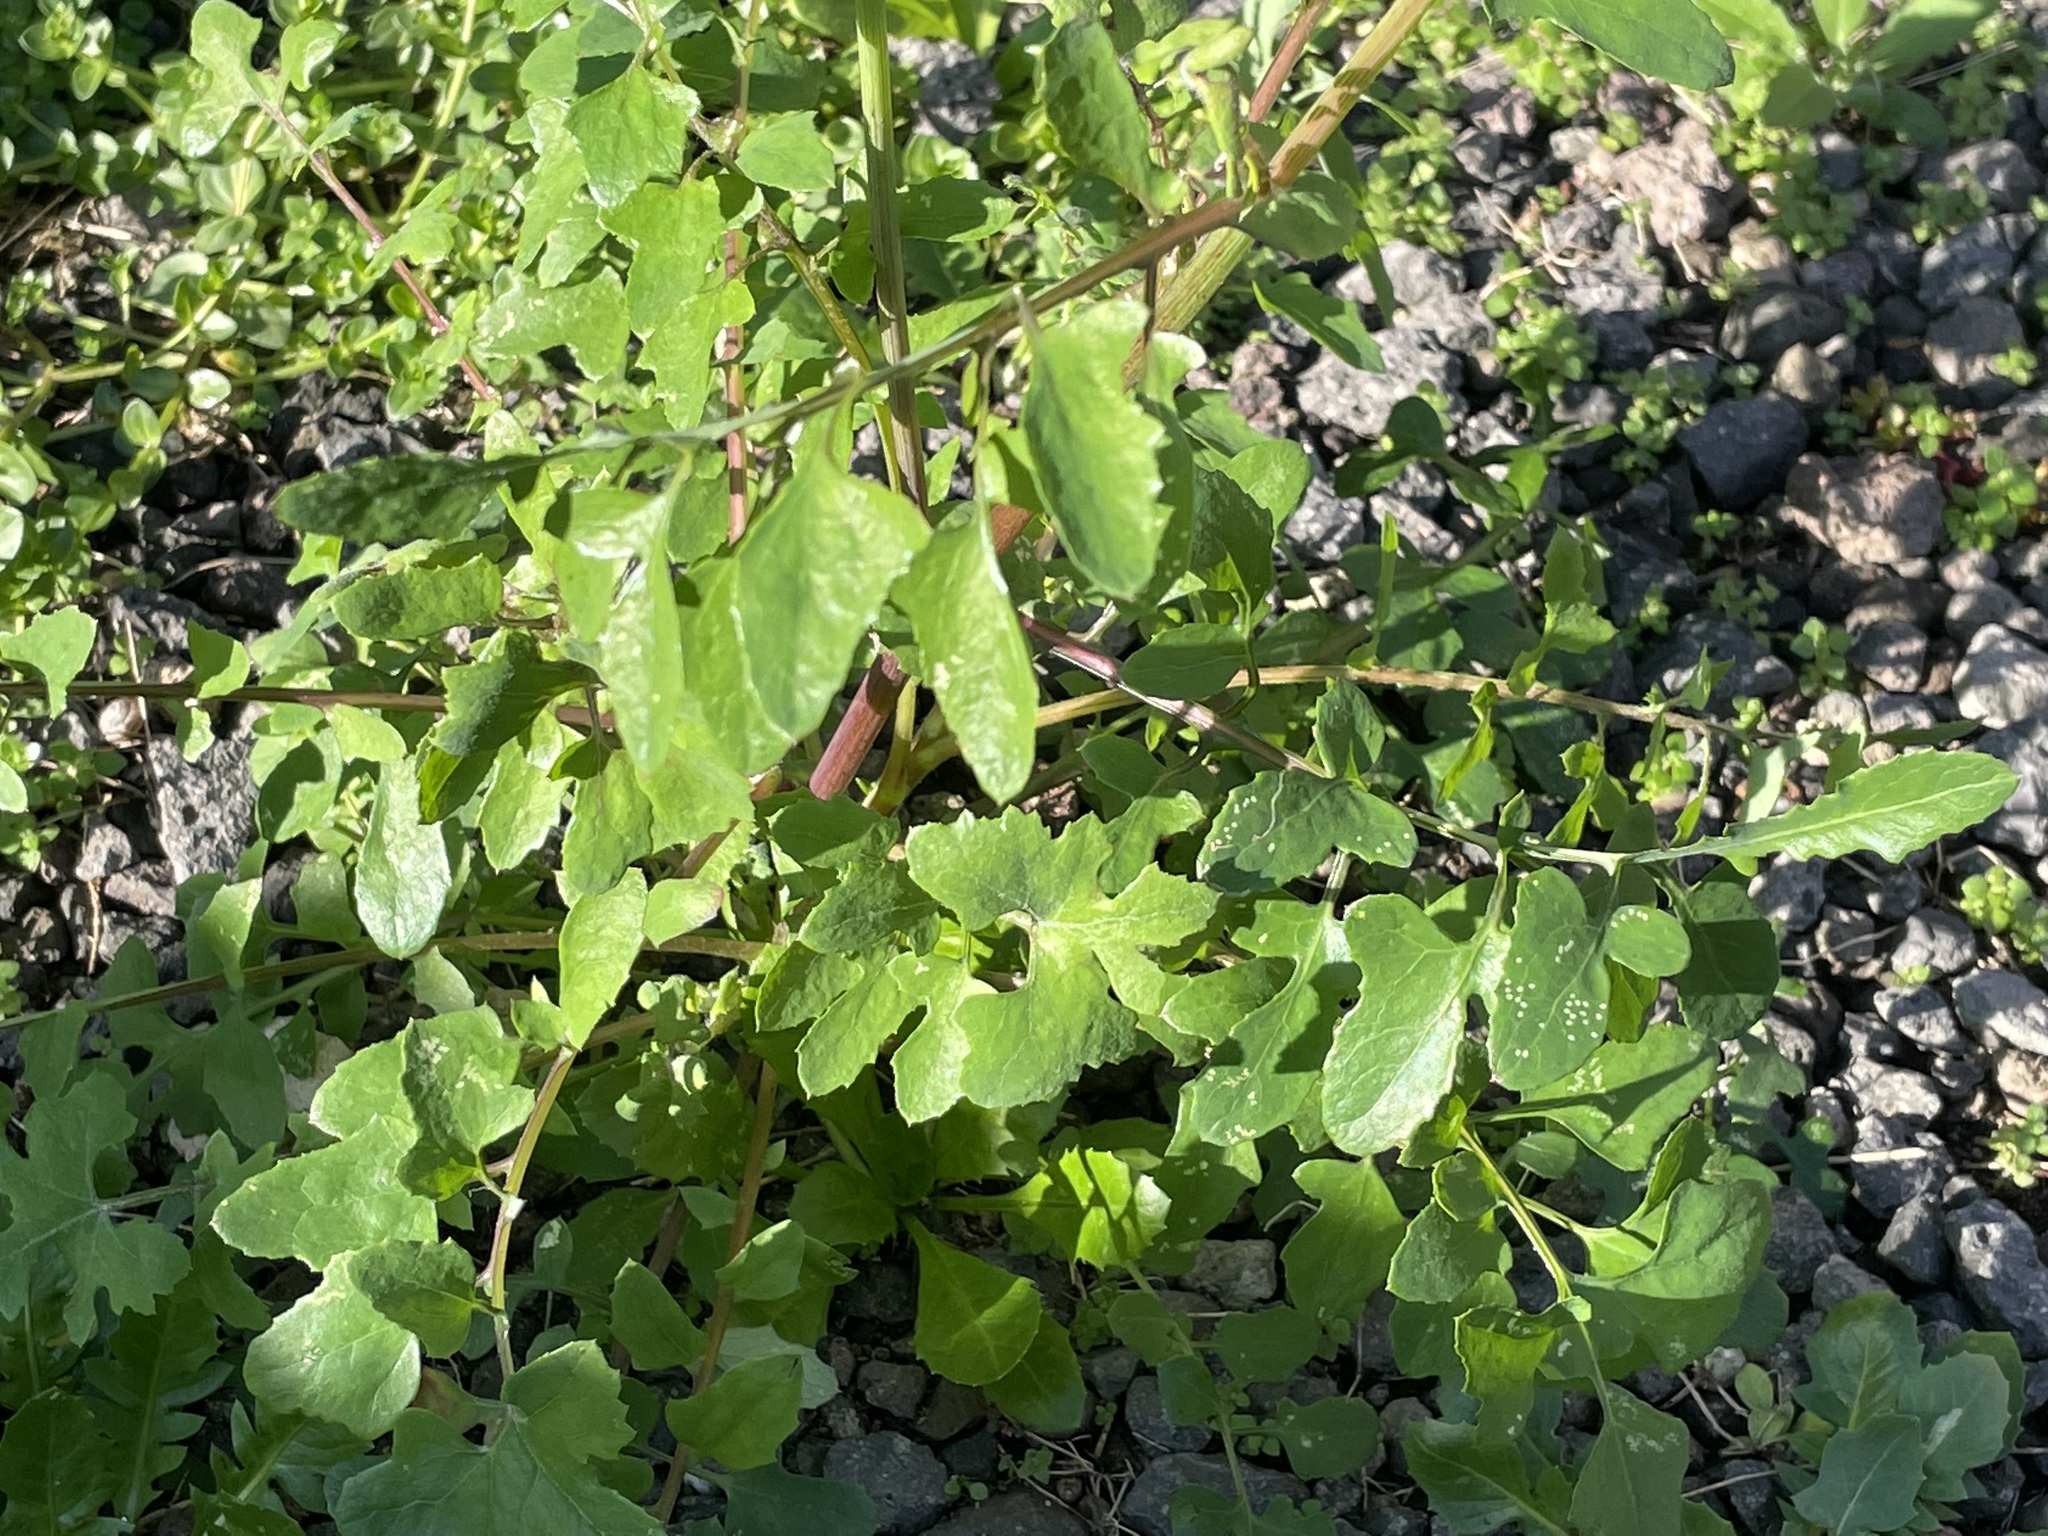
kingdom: Plantae
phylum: Tracheophyta
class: Magnoliopsida
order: Asterales
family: Asteraceae
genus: Sonchus
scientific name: Sonchus tenerrimus
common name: Clammy sowthistle
